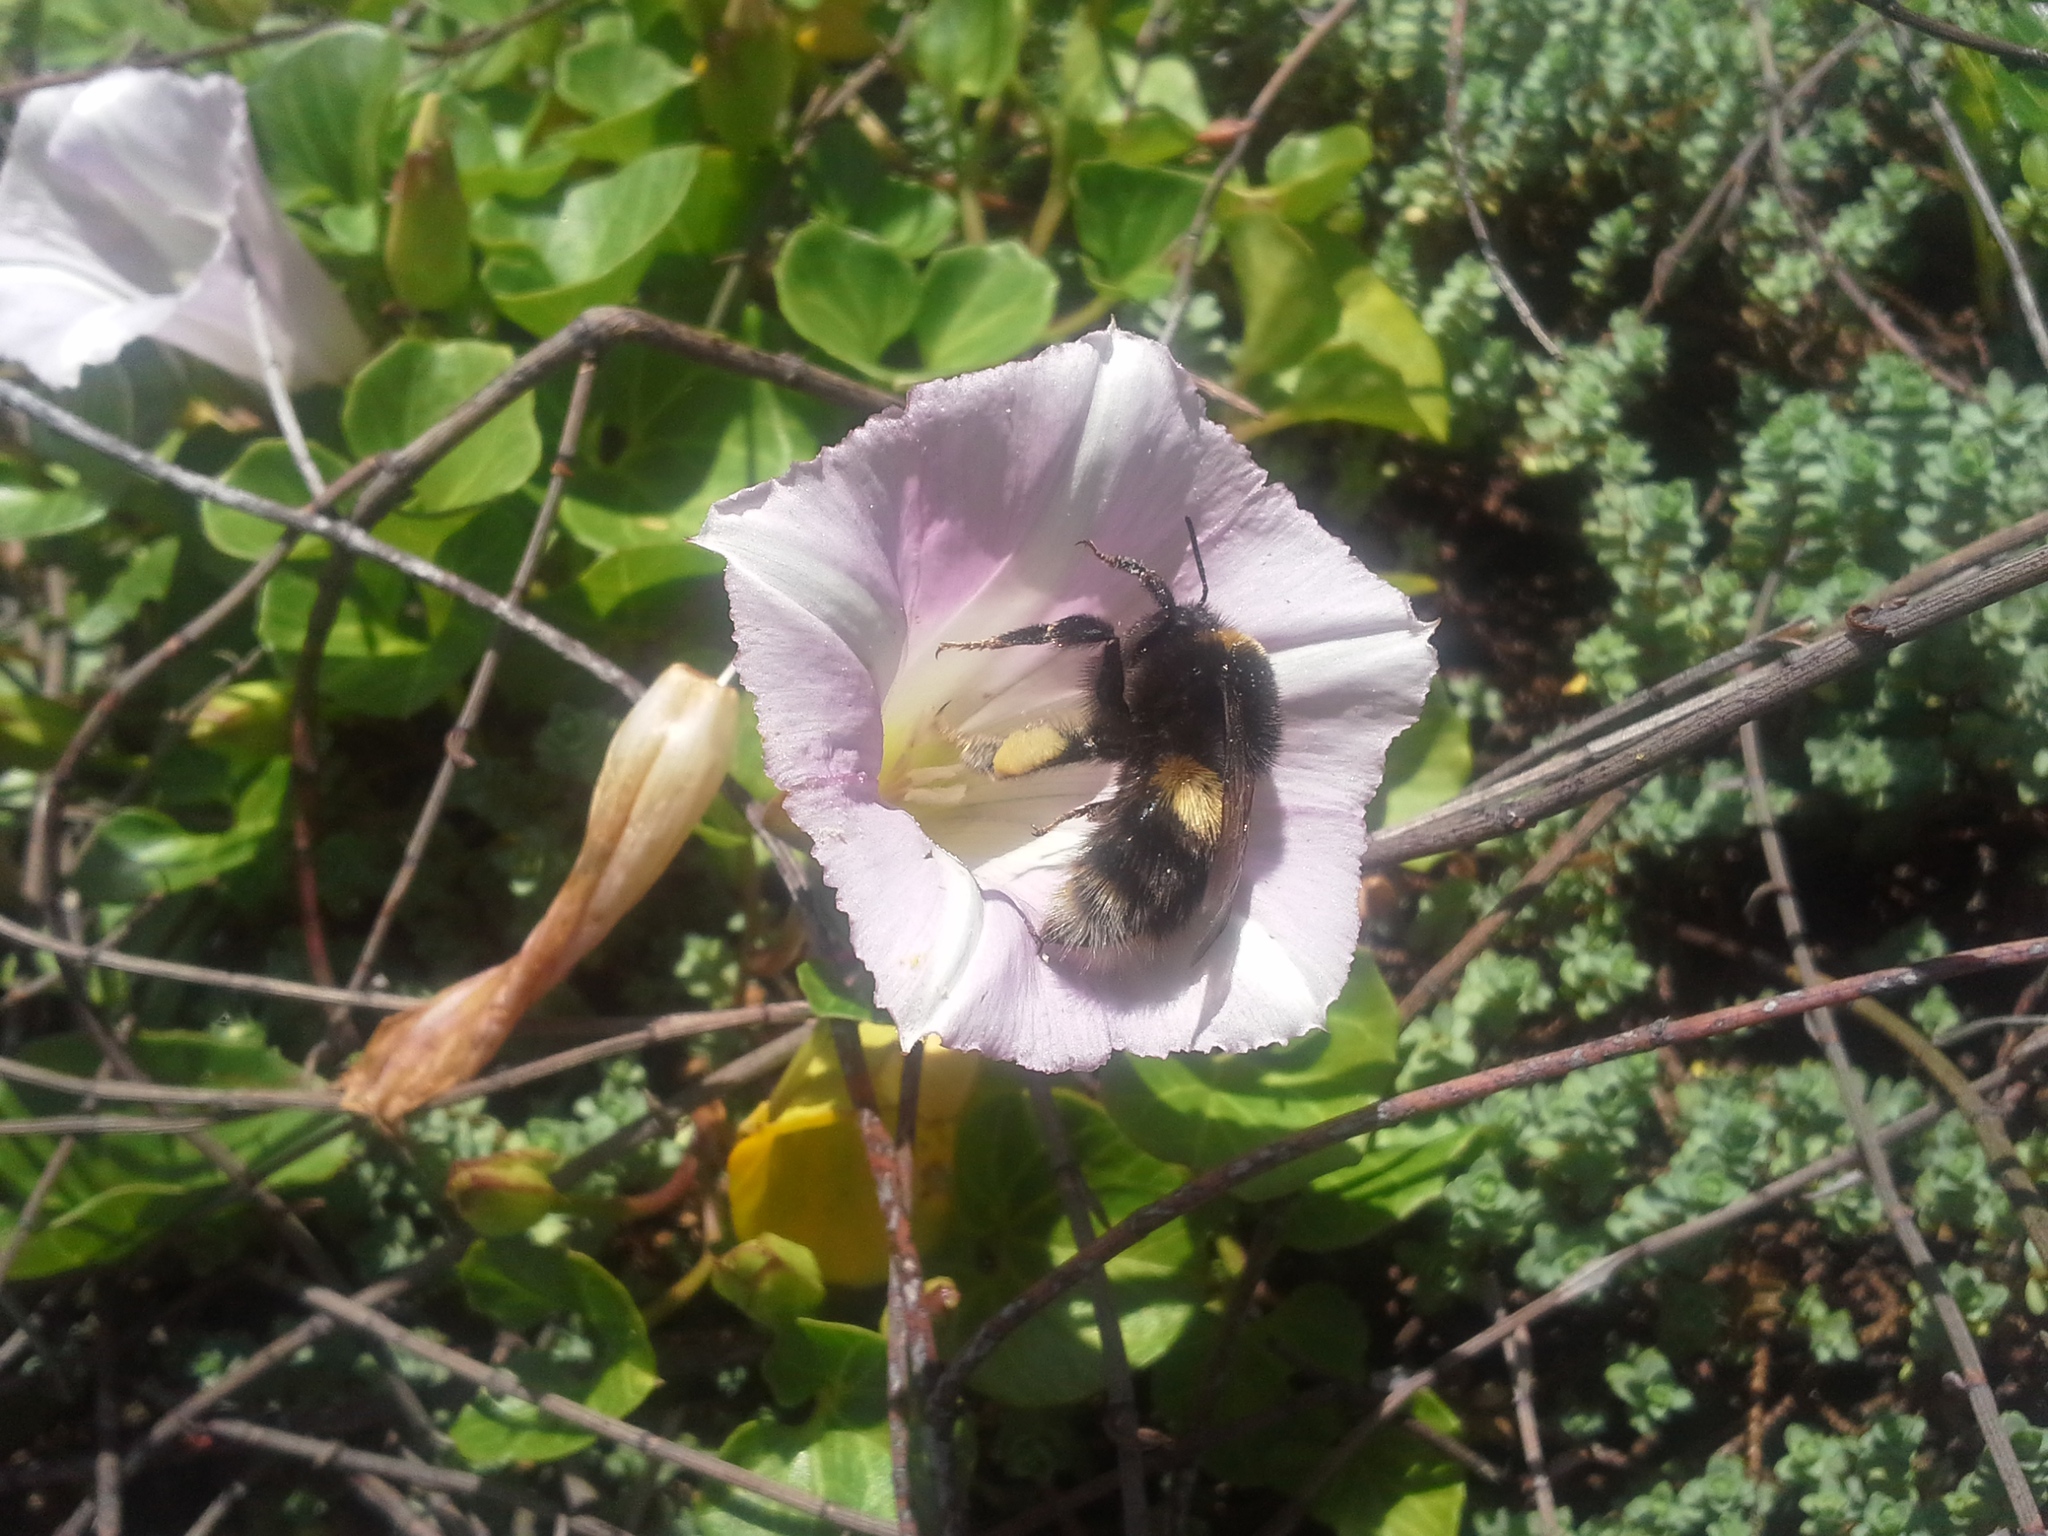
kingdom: Plantae
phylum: Tracheophyta
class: Magnoliopsida
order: Solanales
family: Convolvulaceae
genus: Calystegia
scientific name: Calystegia soldanella
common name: Sea bindweed
